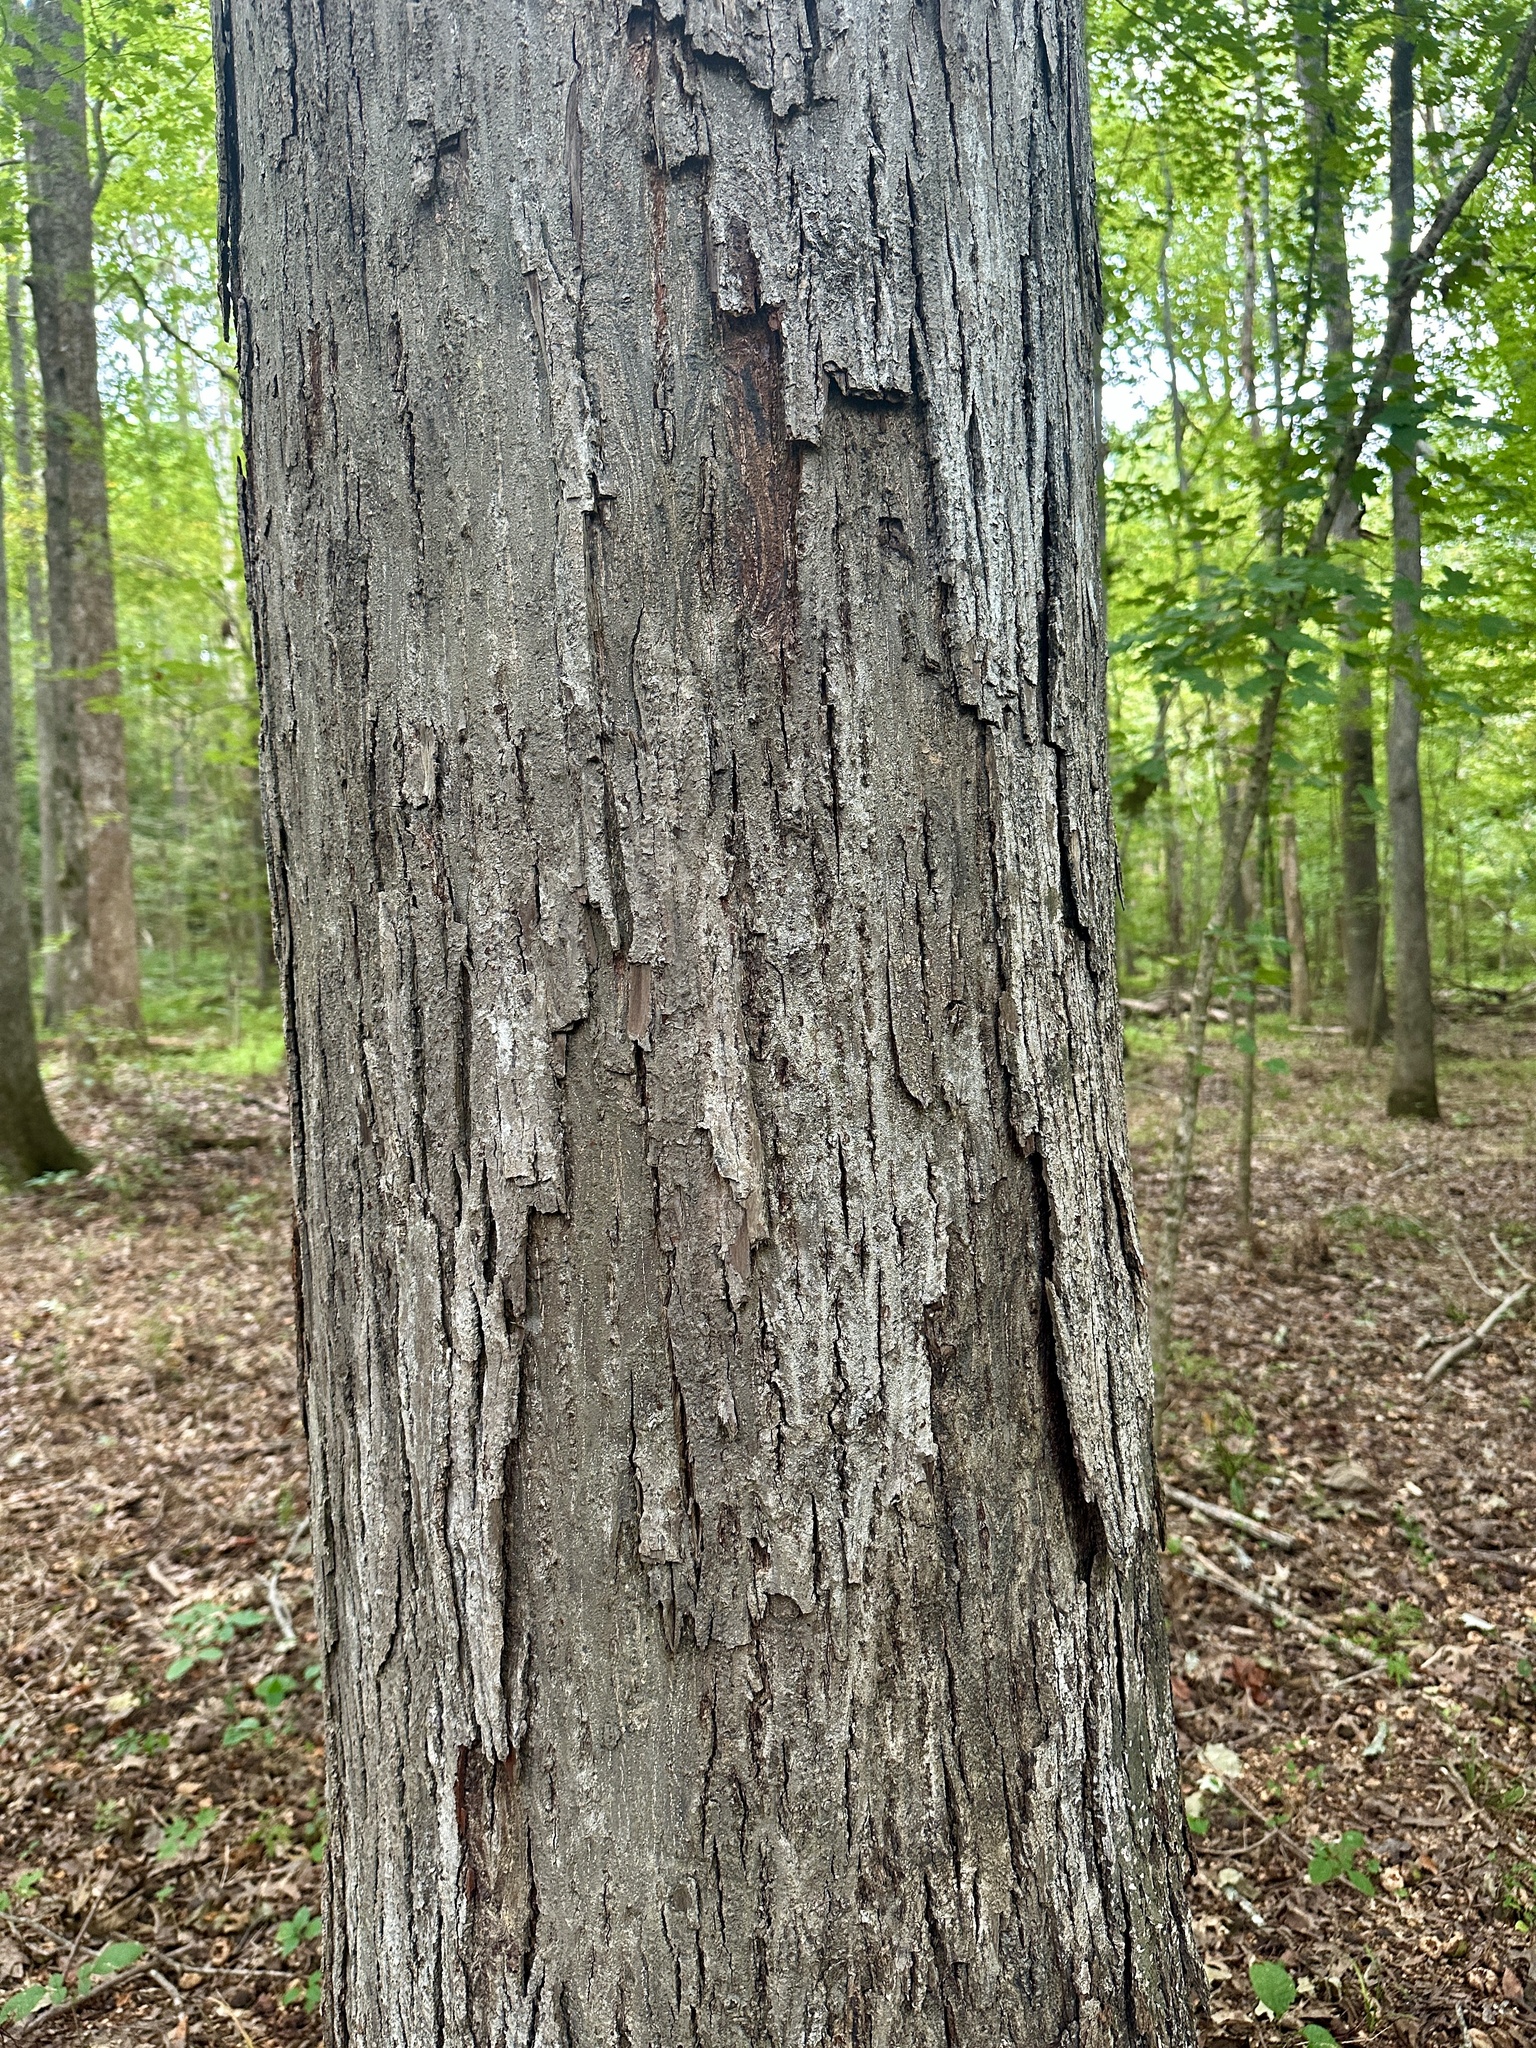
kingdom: Plantae
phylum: Tracheophyta
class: Magnoliopsida
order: Fagales
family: Juglandaceae
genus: Carya
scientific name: Carya ovata
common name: Shagbark hickory
